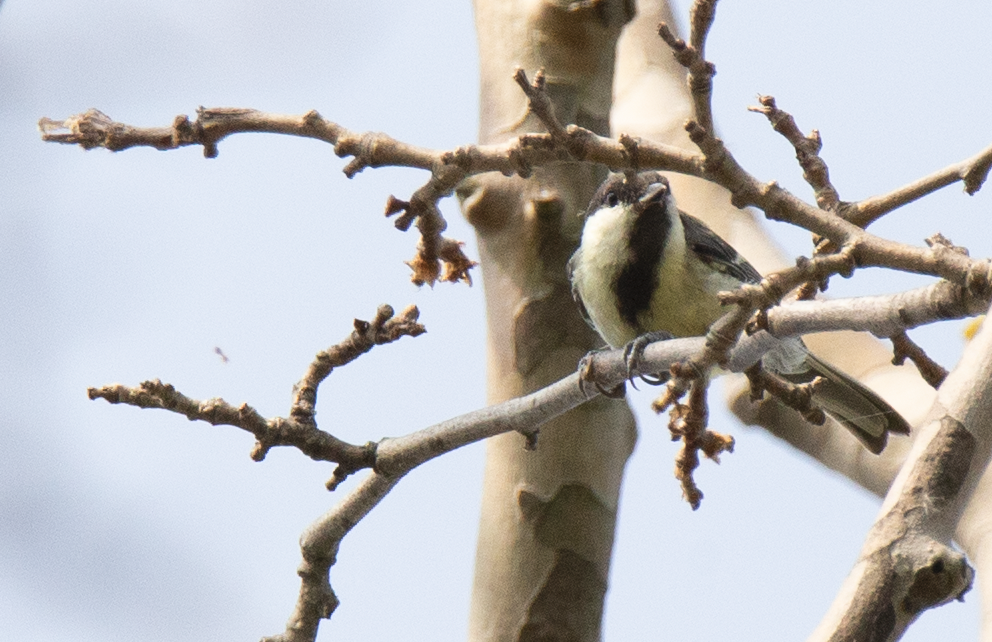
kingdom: Animalia
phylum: Chordata
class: Aves
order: Passeriformes
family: Paridae
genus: Parus
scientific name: Parus major
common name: Great tit
